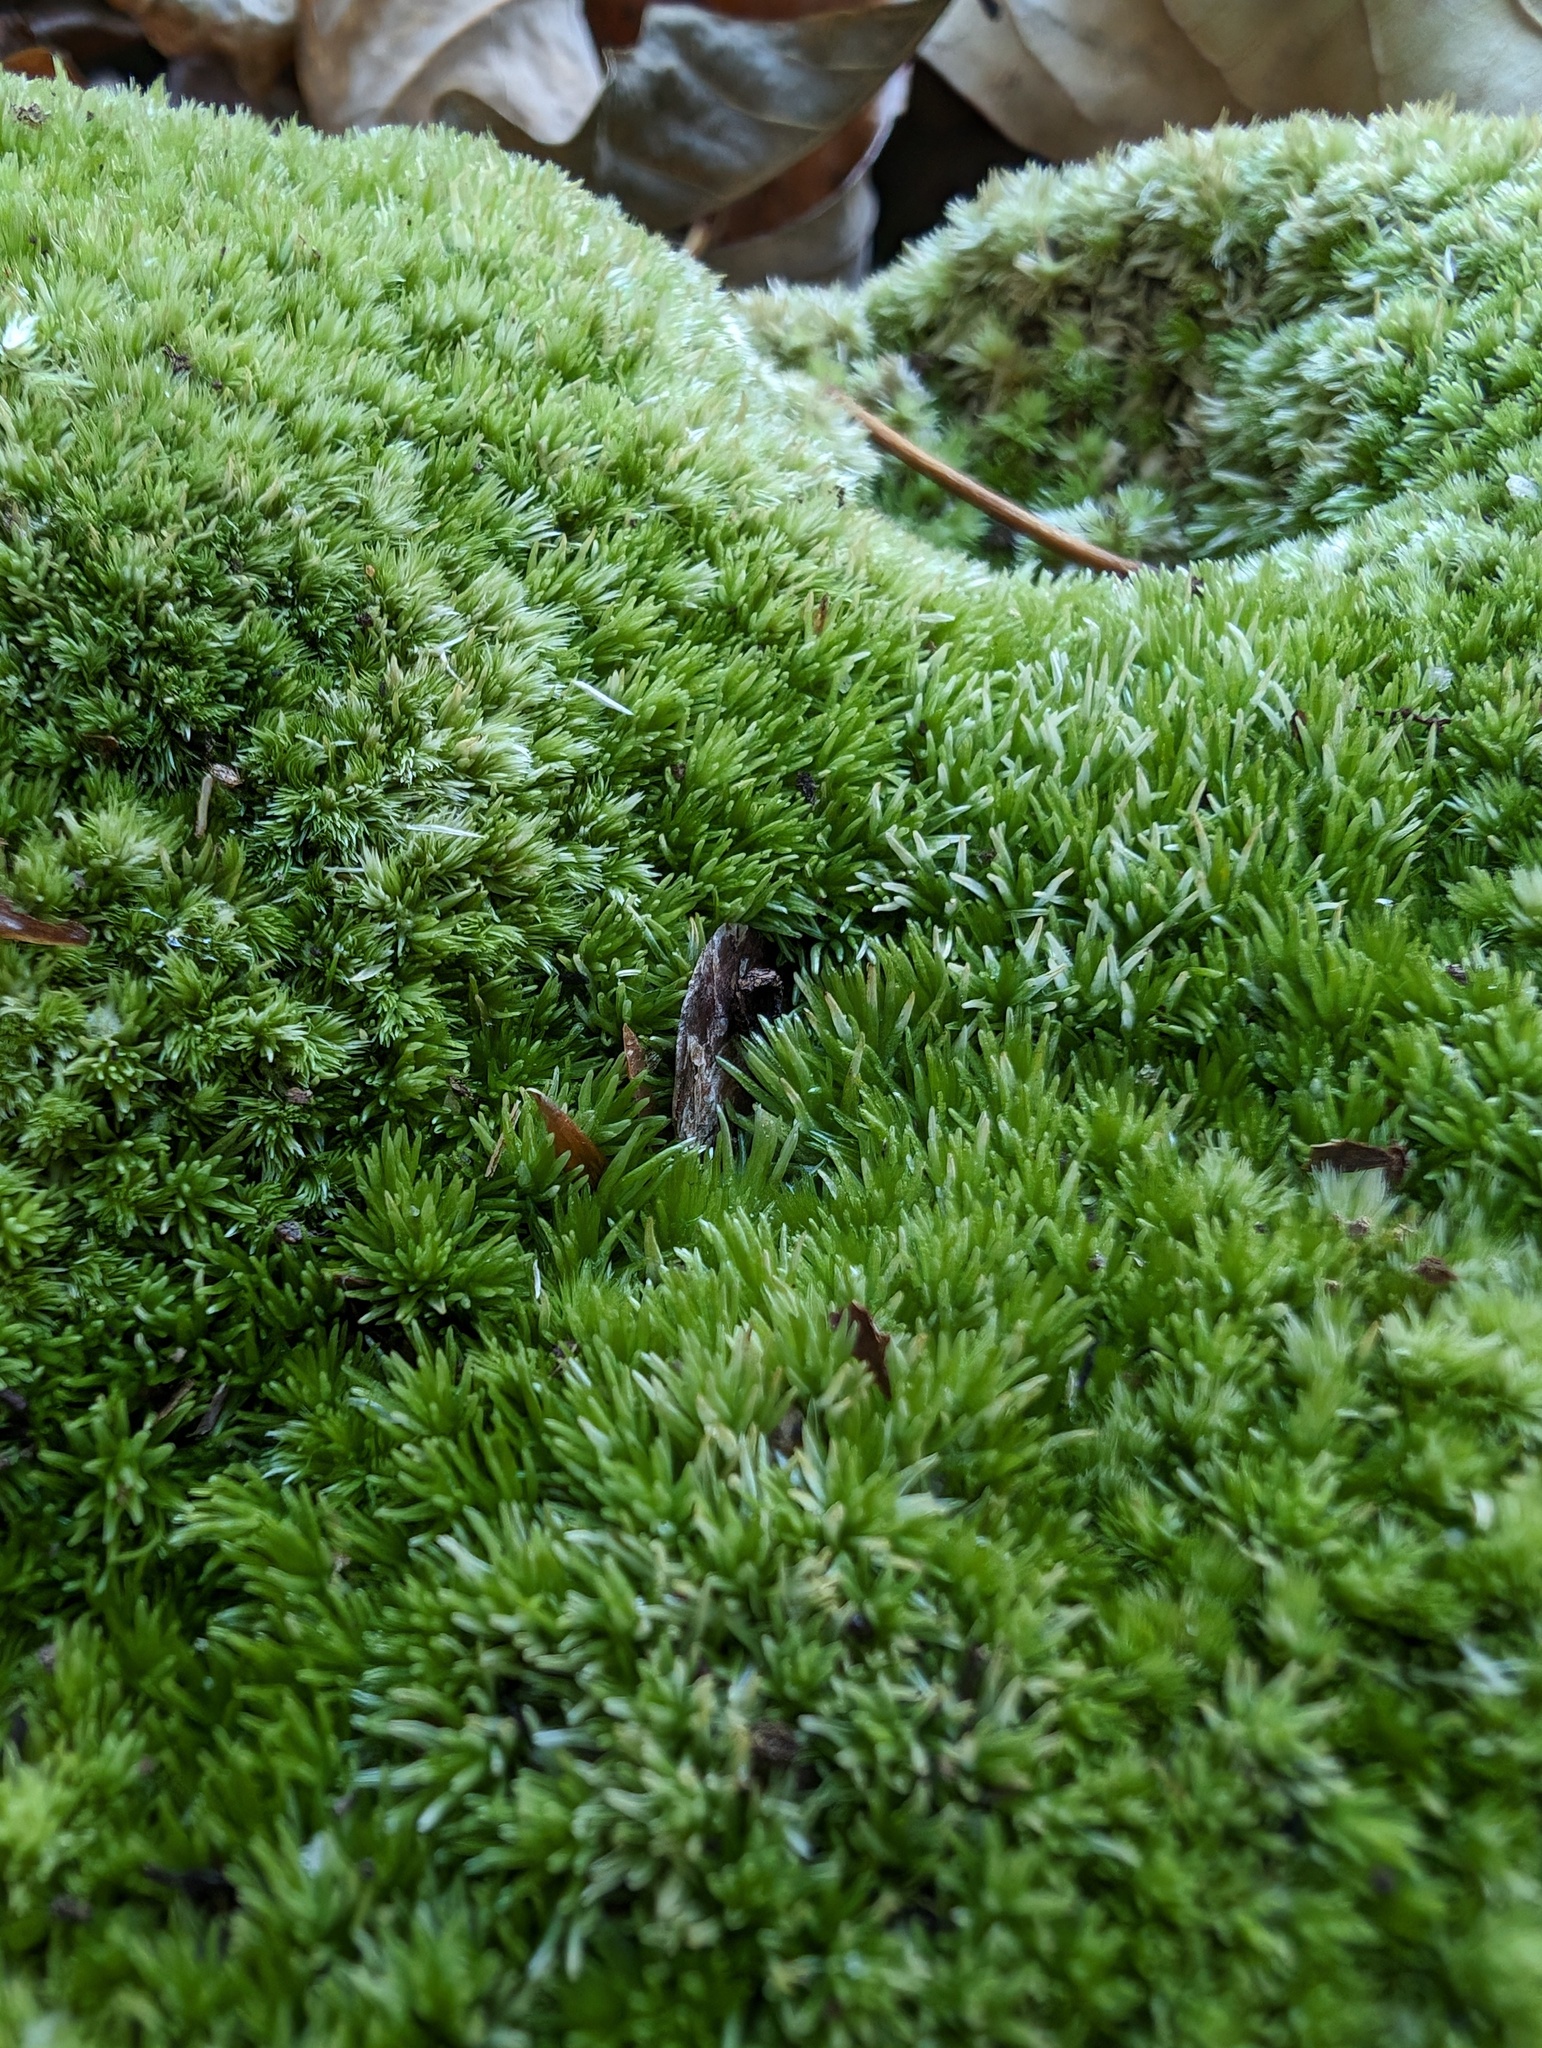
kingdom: Plantae
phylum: Bryophyta
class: Bryopsida
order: Dicranales
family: Leucobryaceae
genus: Leucobryum
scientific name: Leucobryum glaucum
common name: Large white-moss
